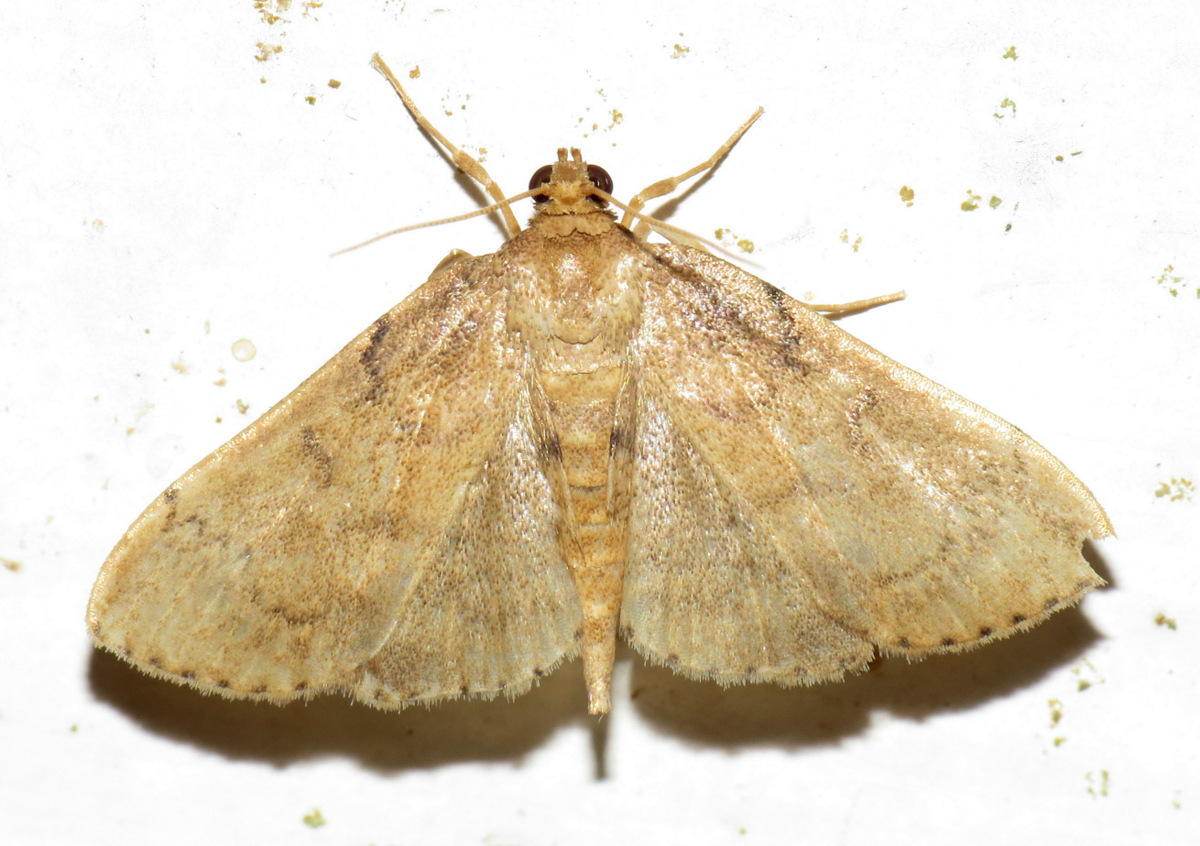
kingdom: Animalia
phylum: Arthropoda
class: Insecta
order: Lepidoptera
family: Crambidae
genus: Massepha
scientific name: Massepha lupa
